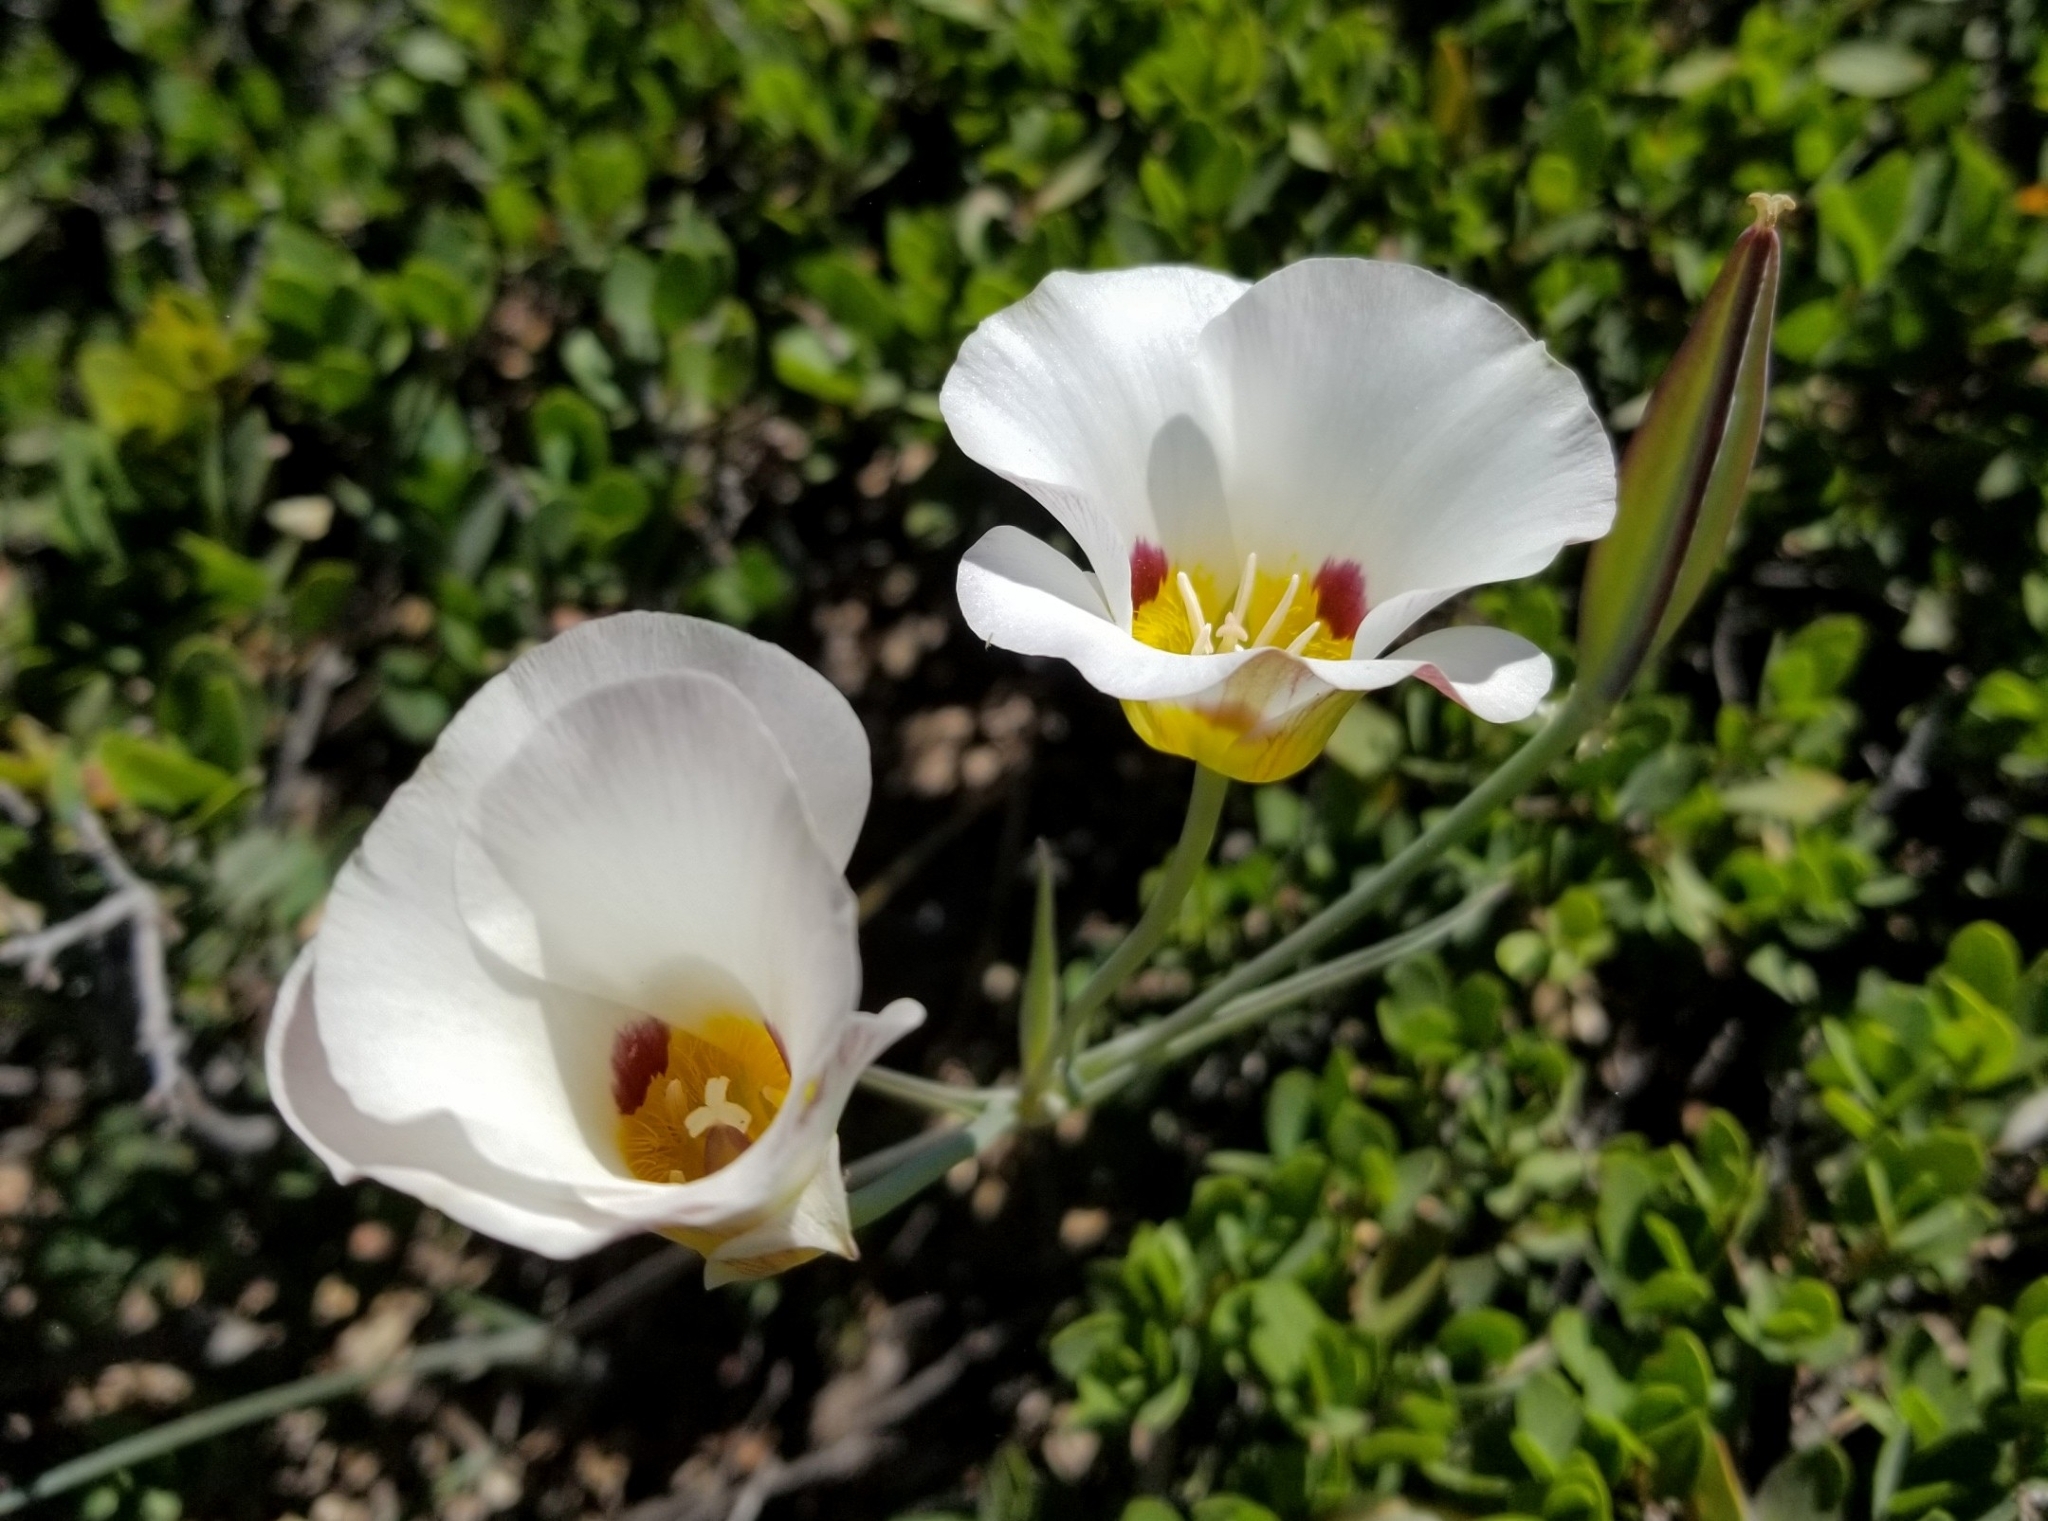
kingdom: Plantae
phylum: Tracheophyta
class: Liliopsida
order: Liliales
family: Liliaceae
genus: Calochortus
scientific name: Calochortus leichtlinii
